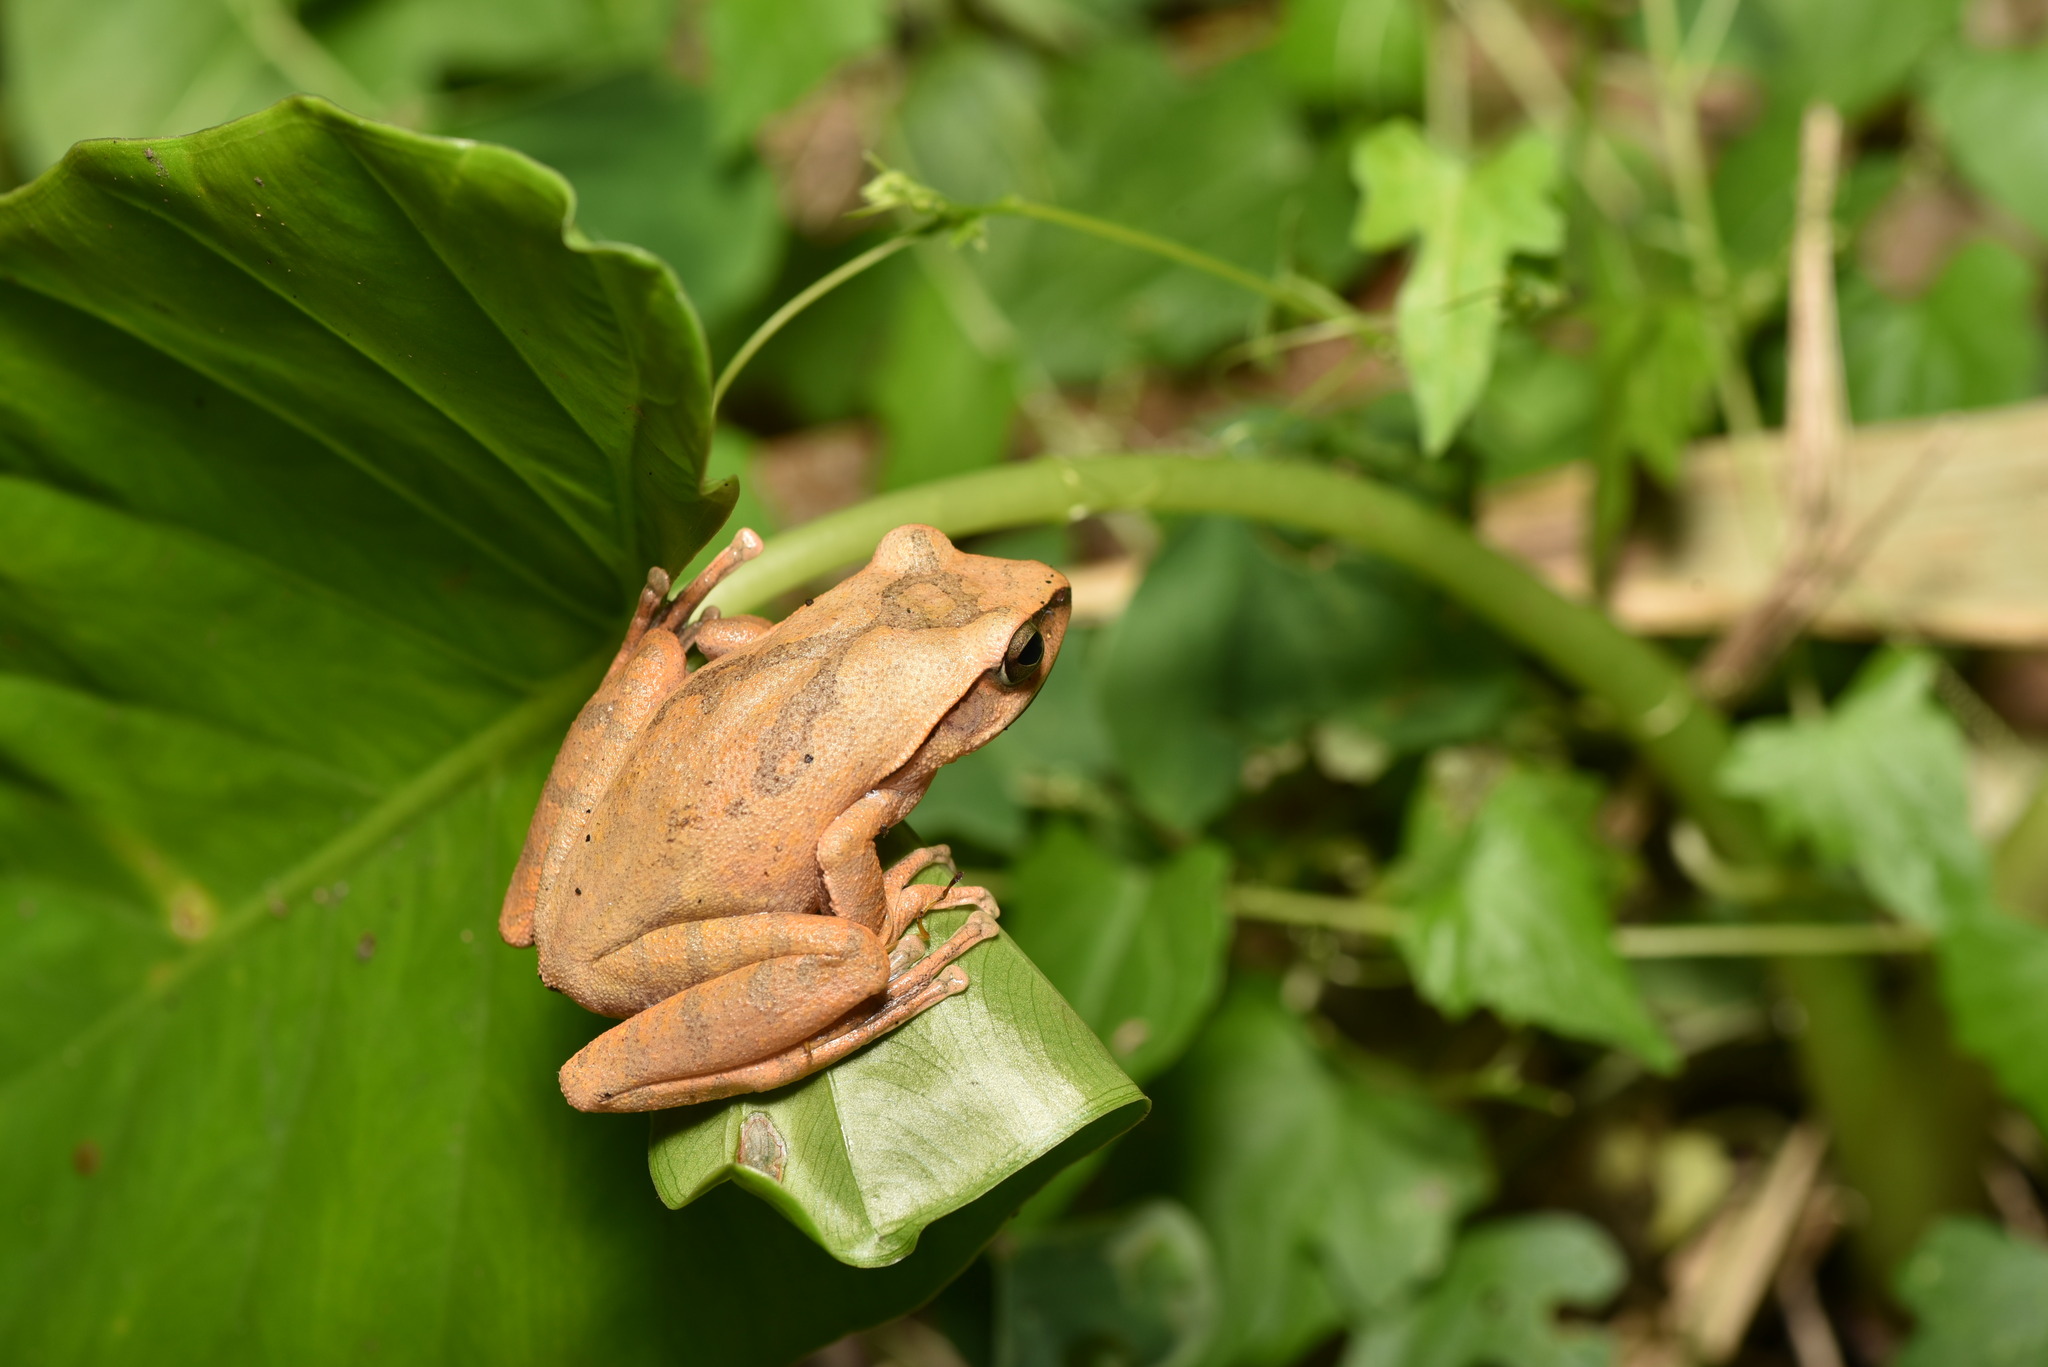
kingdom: Animalia
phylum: Chordata
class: Amphibia
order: Anura
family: Rhacophoridae
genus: Polypedates
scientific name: Polypedates megacephalus
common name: Hong kong whipping frog
